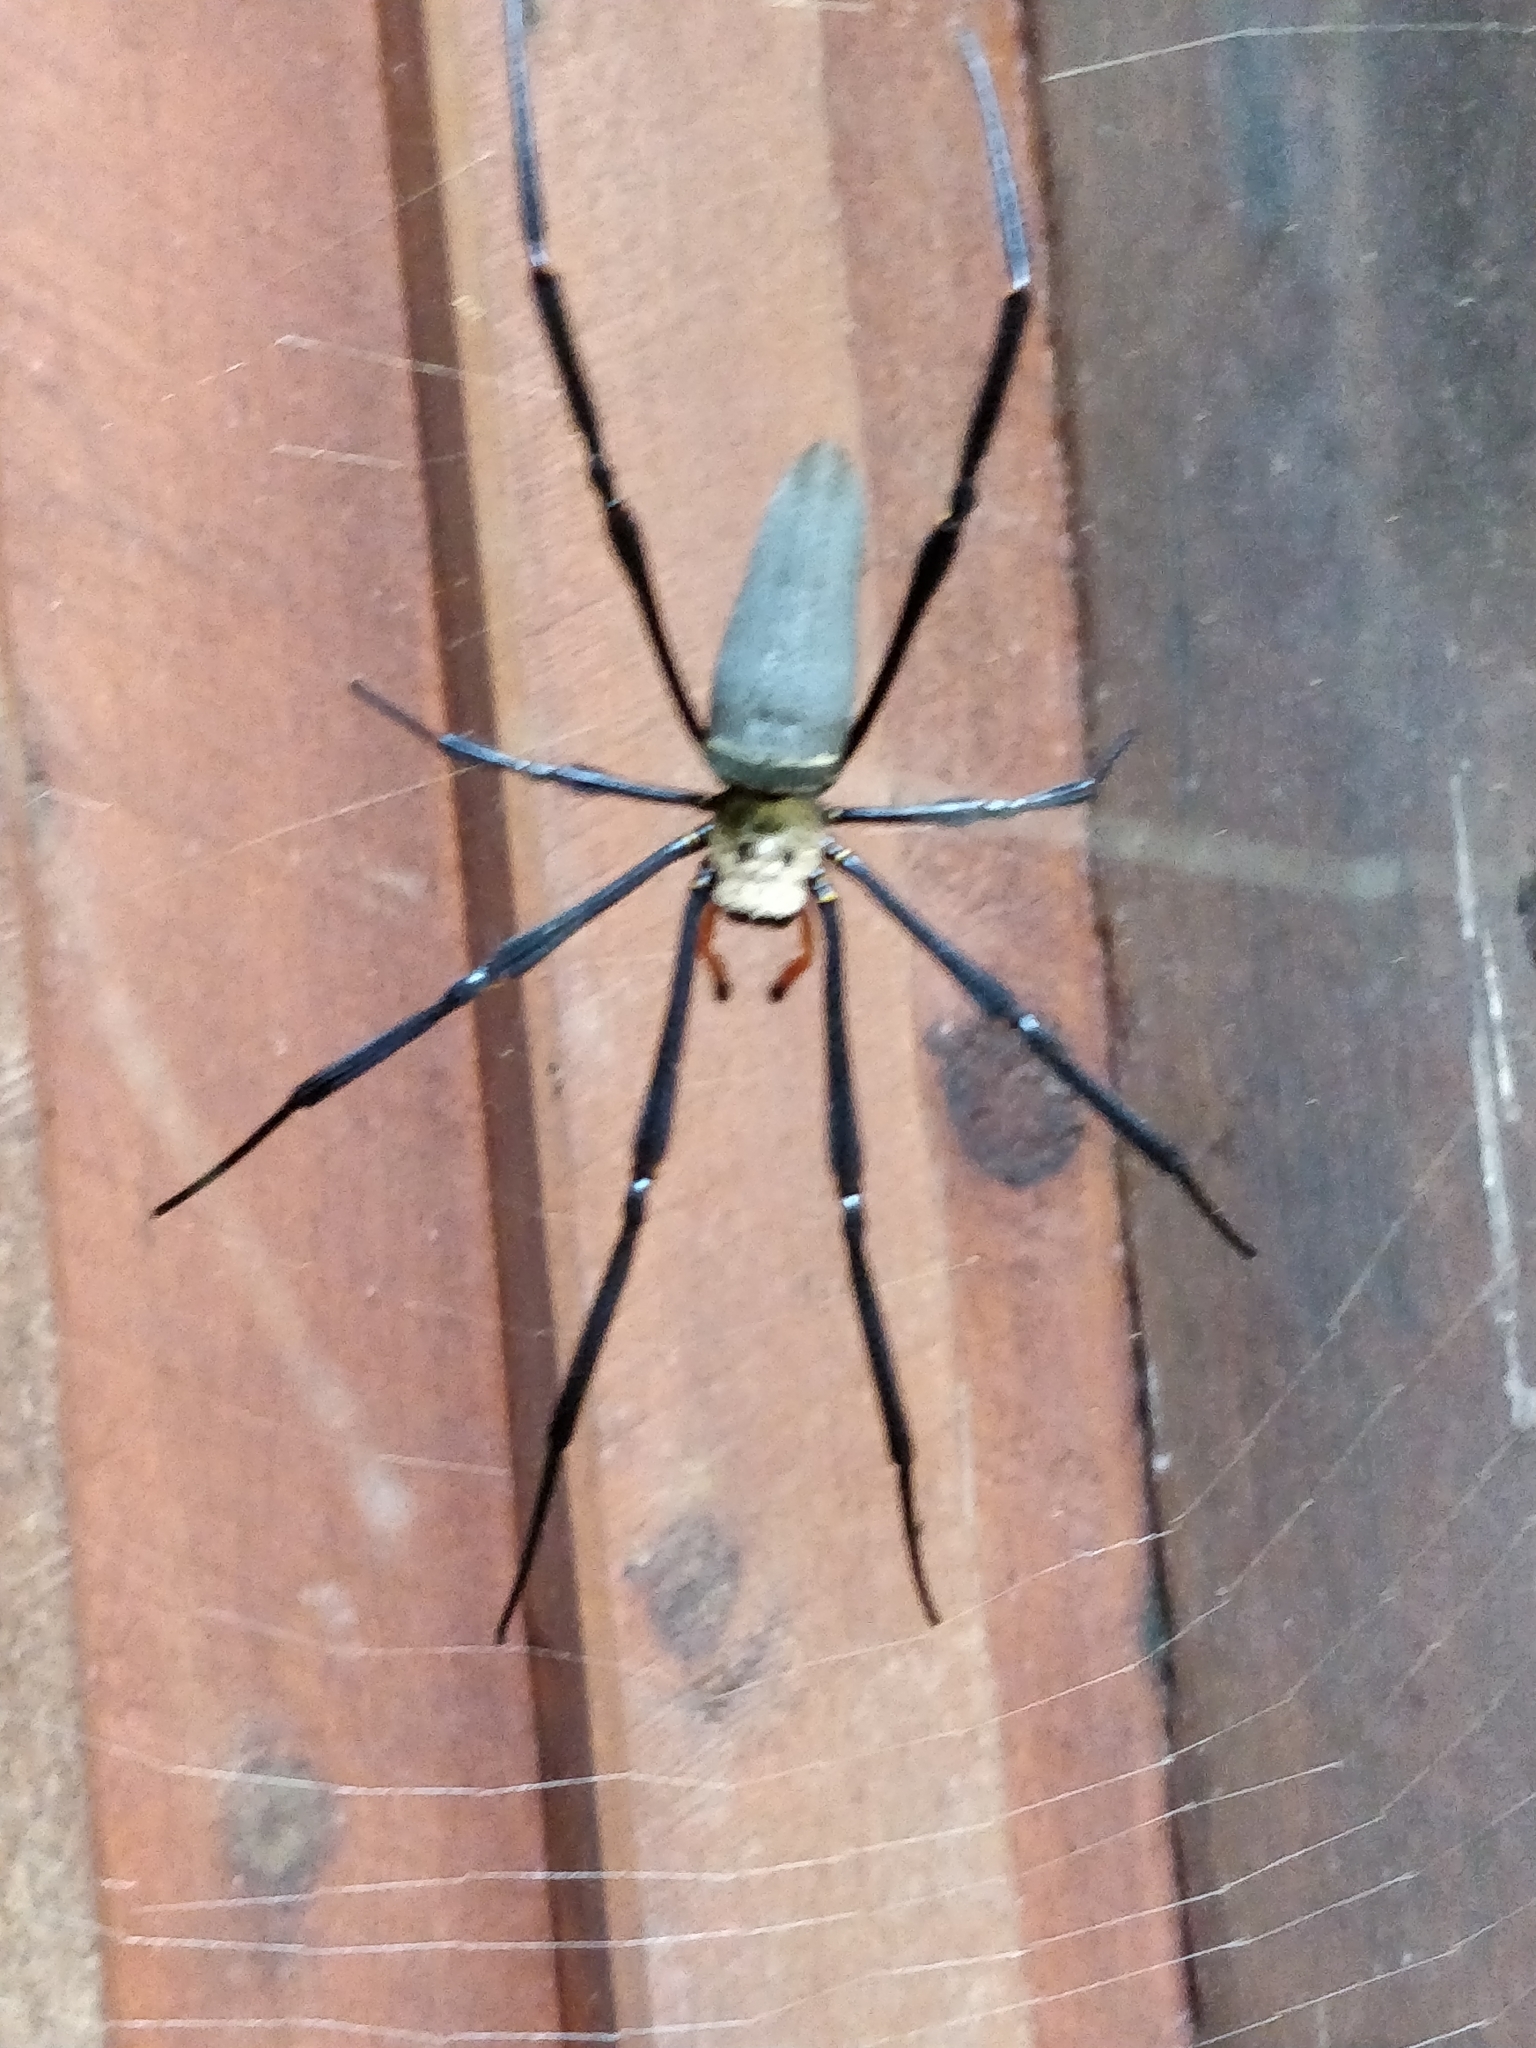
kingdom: Animalia
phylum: Arthropoda
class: Arachnida
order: Araneae
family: Araneidae
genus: Nephila
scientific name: Nephila pilipes
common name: Giant golden orb weaver
